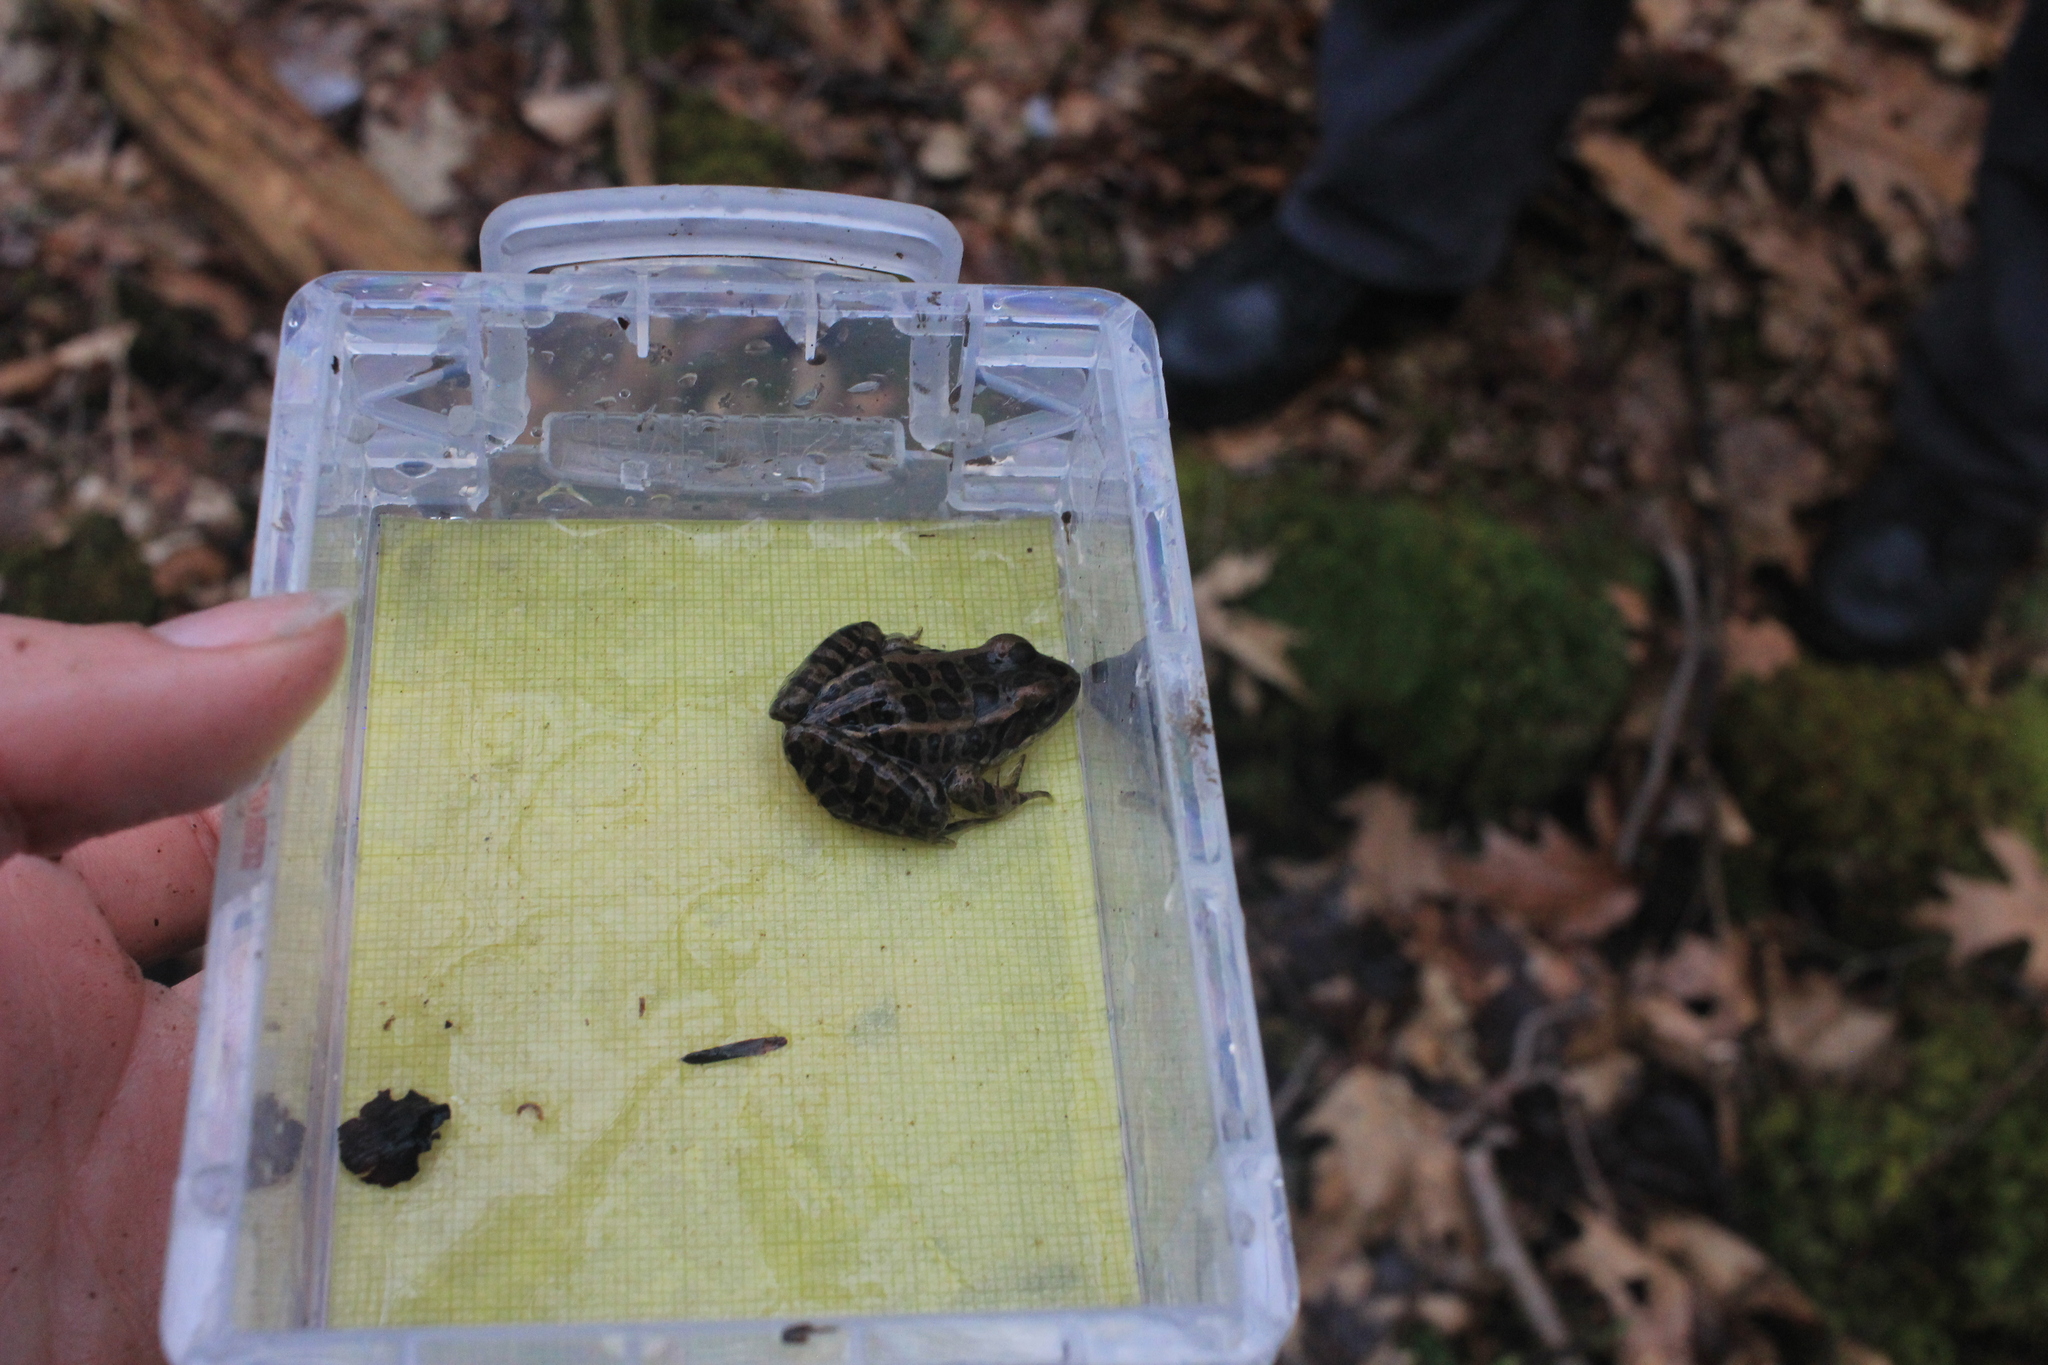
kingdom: Animalia
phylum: Chordata
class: Amphibia
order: Anura
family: Ranidae
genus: Lithobates
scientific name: Lithobates palustris
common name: Pickerel frog
